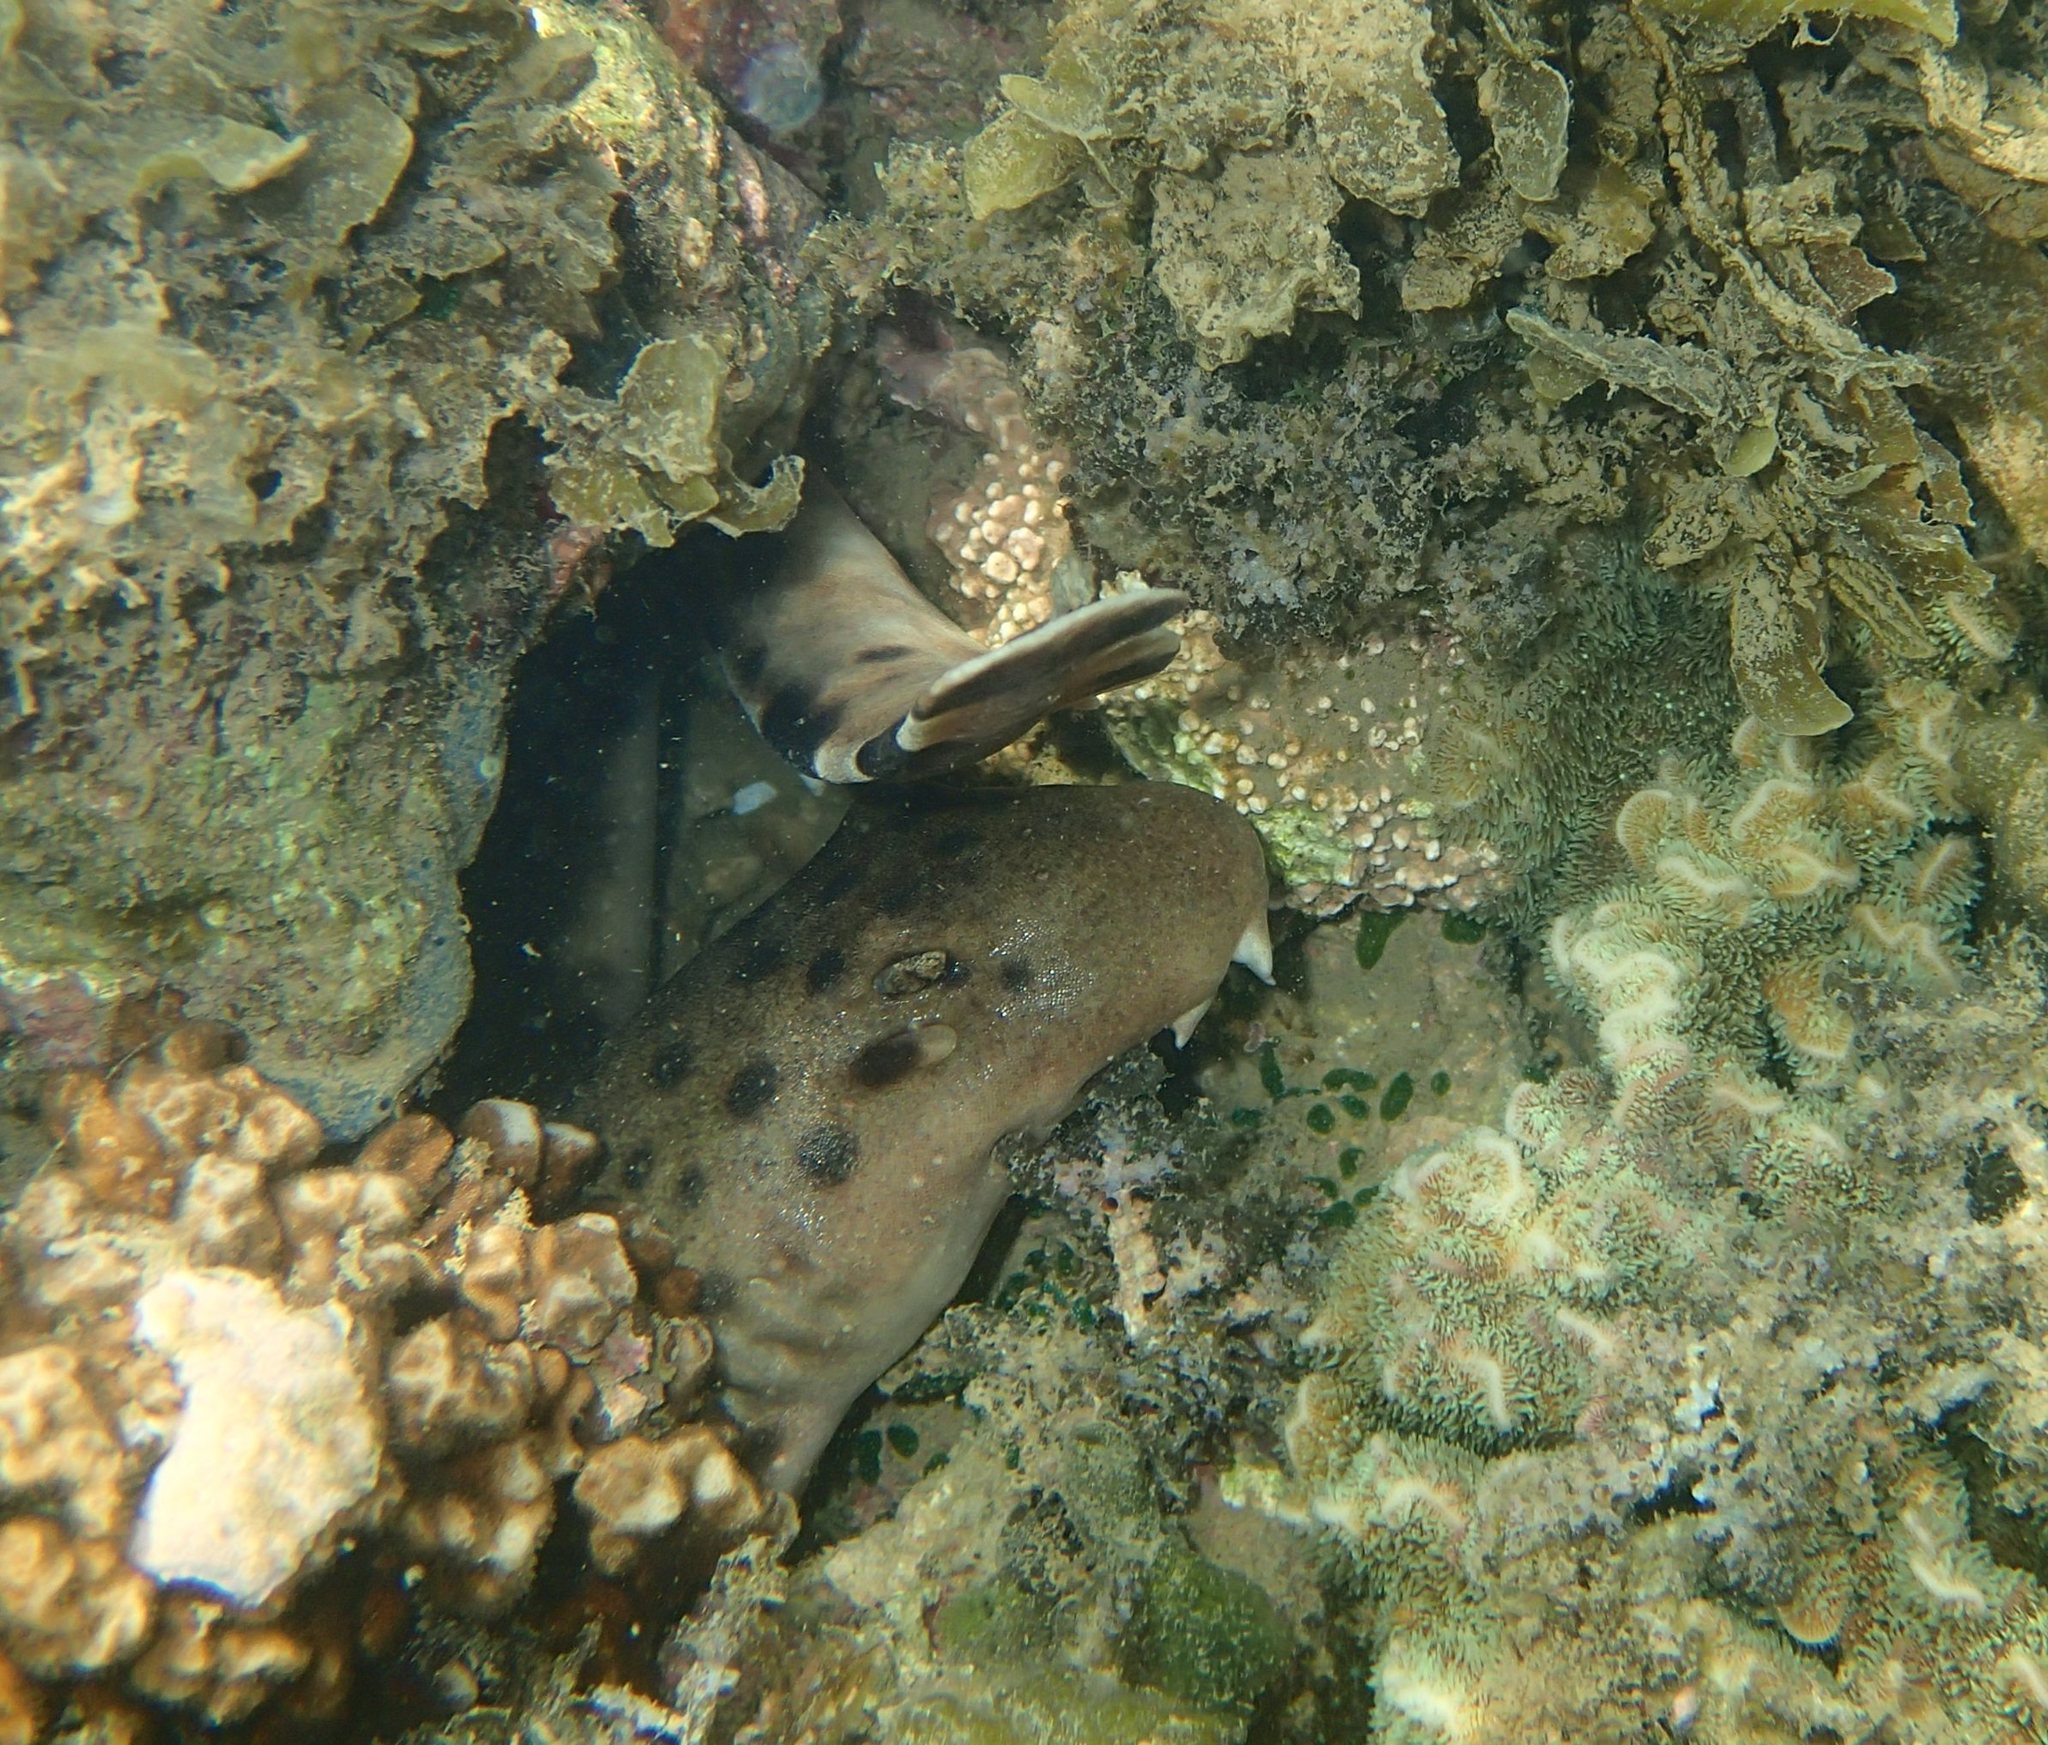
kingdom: Animalia
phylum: Chordata
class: Elasmobranchii
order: Orectolobiformes
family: Hemiscylliidae
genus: Hemiscyllium
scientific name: Hemiscyllium ocellatum
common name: Epaulette shark
